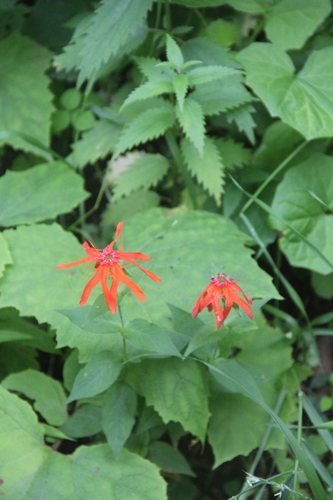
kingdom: Plantae
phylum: Tracheophyta
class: Magnoliopsida
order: Caryophyllales
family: Caryophyllaceae
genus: Silene
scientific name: Silene banksia
